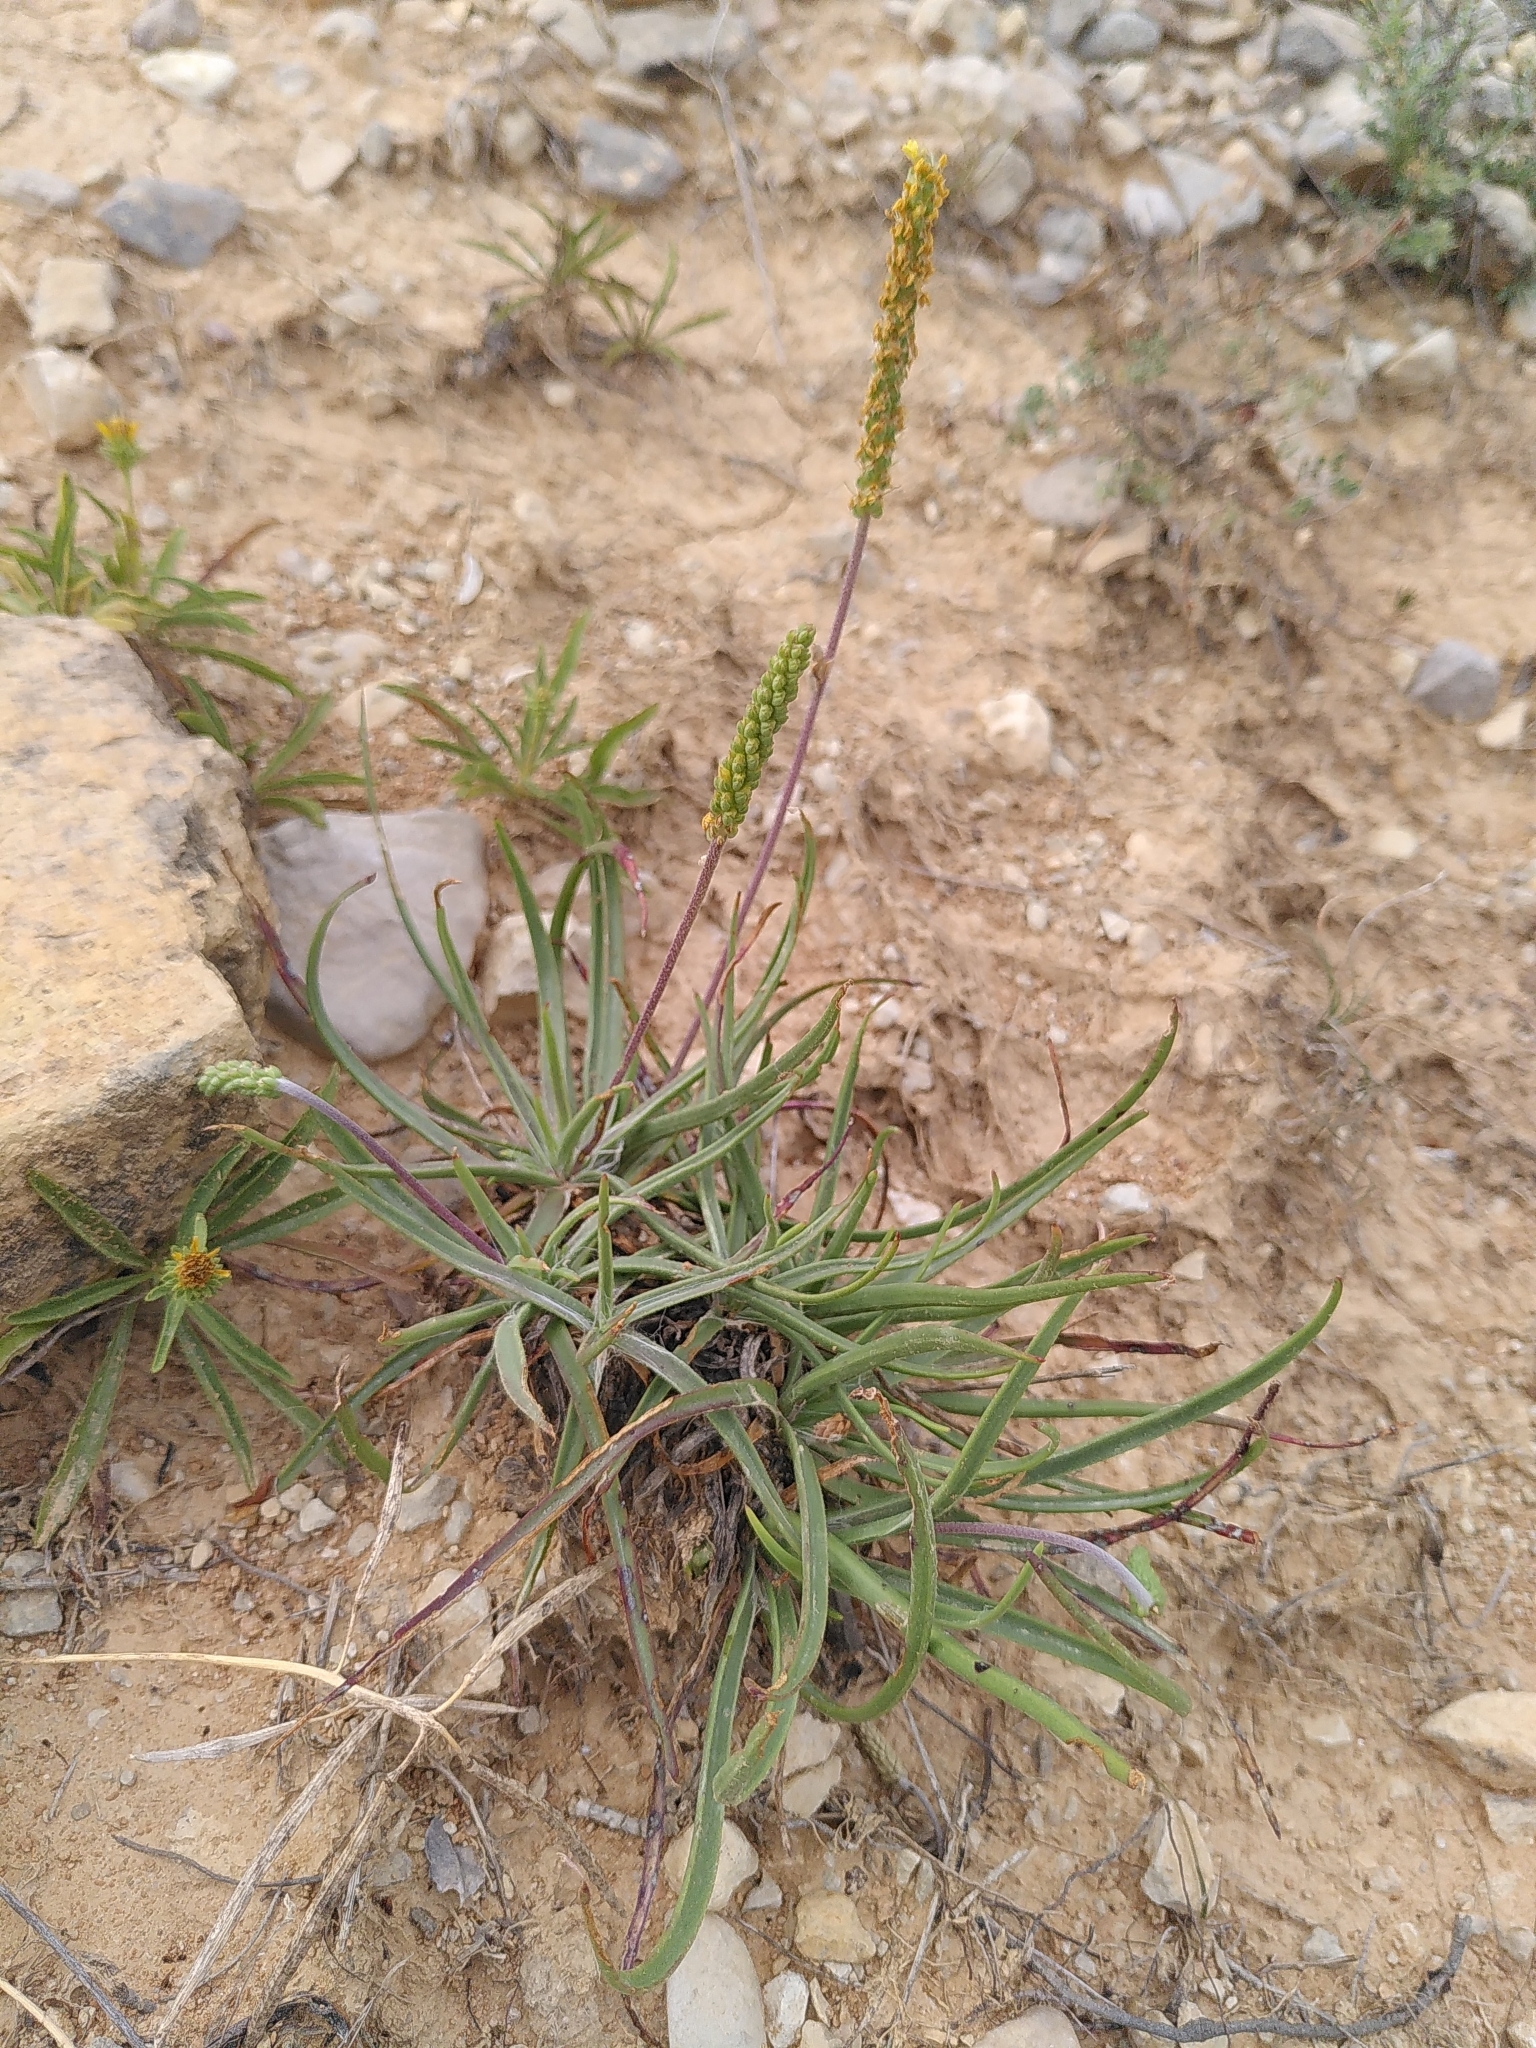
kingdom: Plantae
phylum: Tracheophyta
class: Magnoliopsida
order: Lamiales
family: Plantaginaceae
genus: Plantago
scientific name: Plantago maritima
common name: Sea plantain
